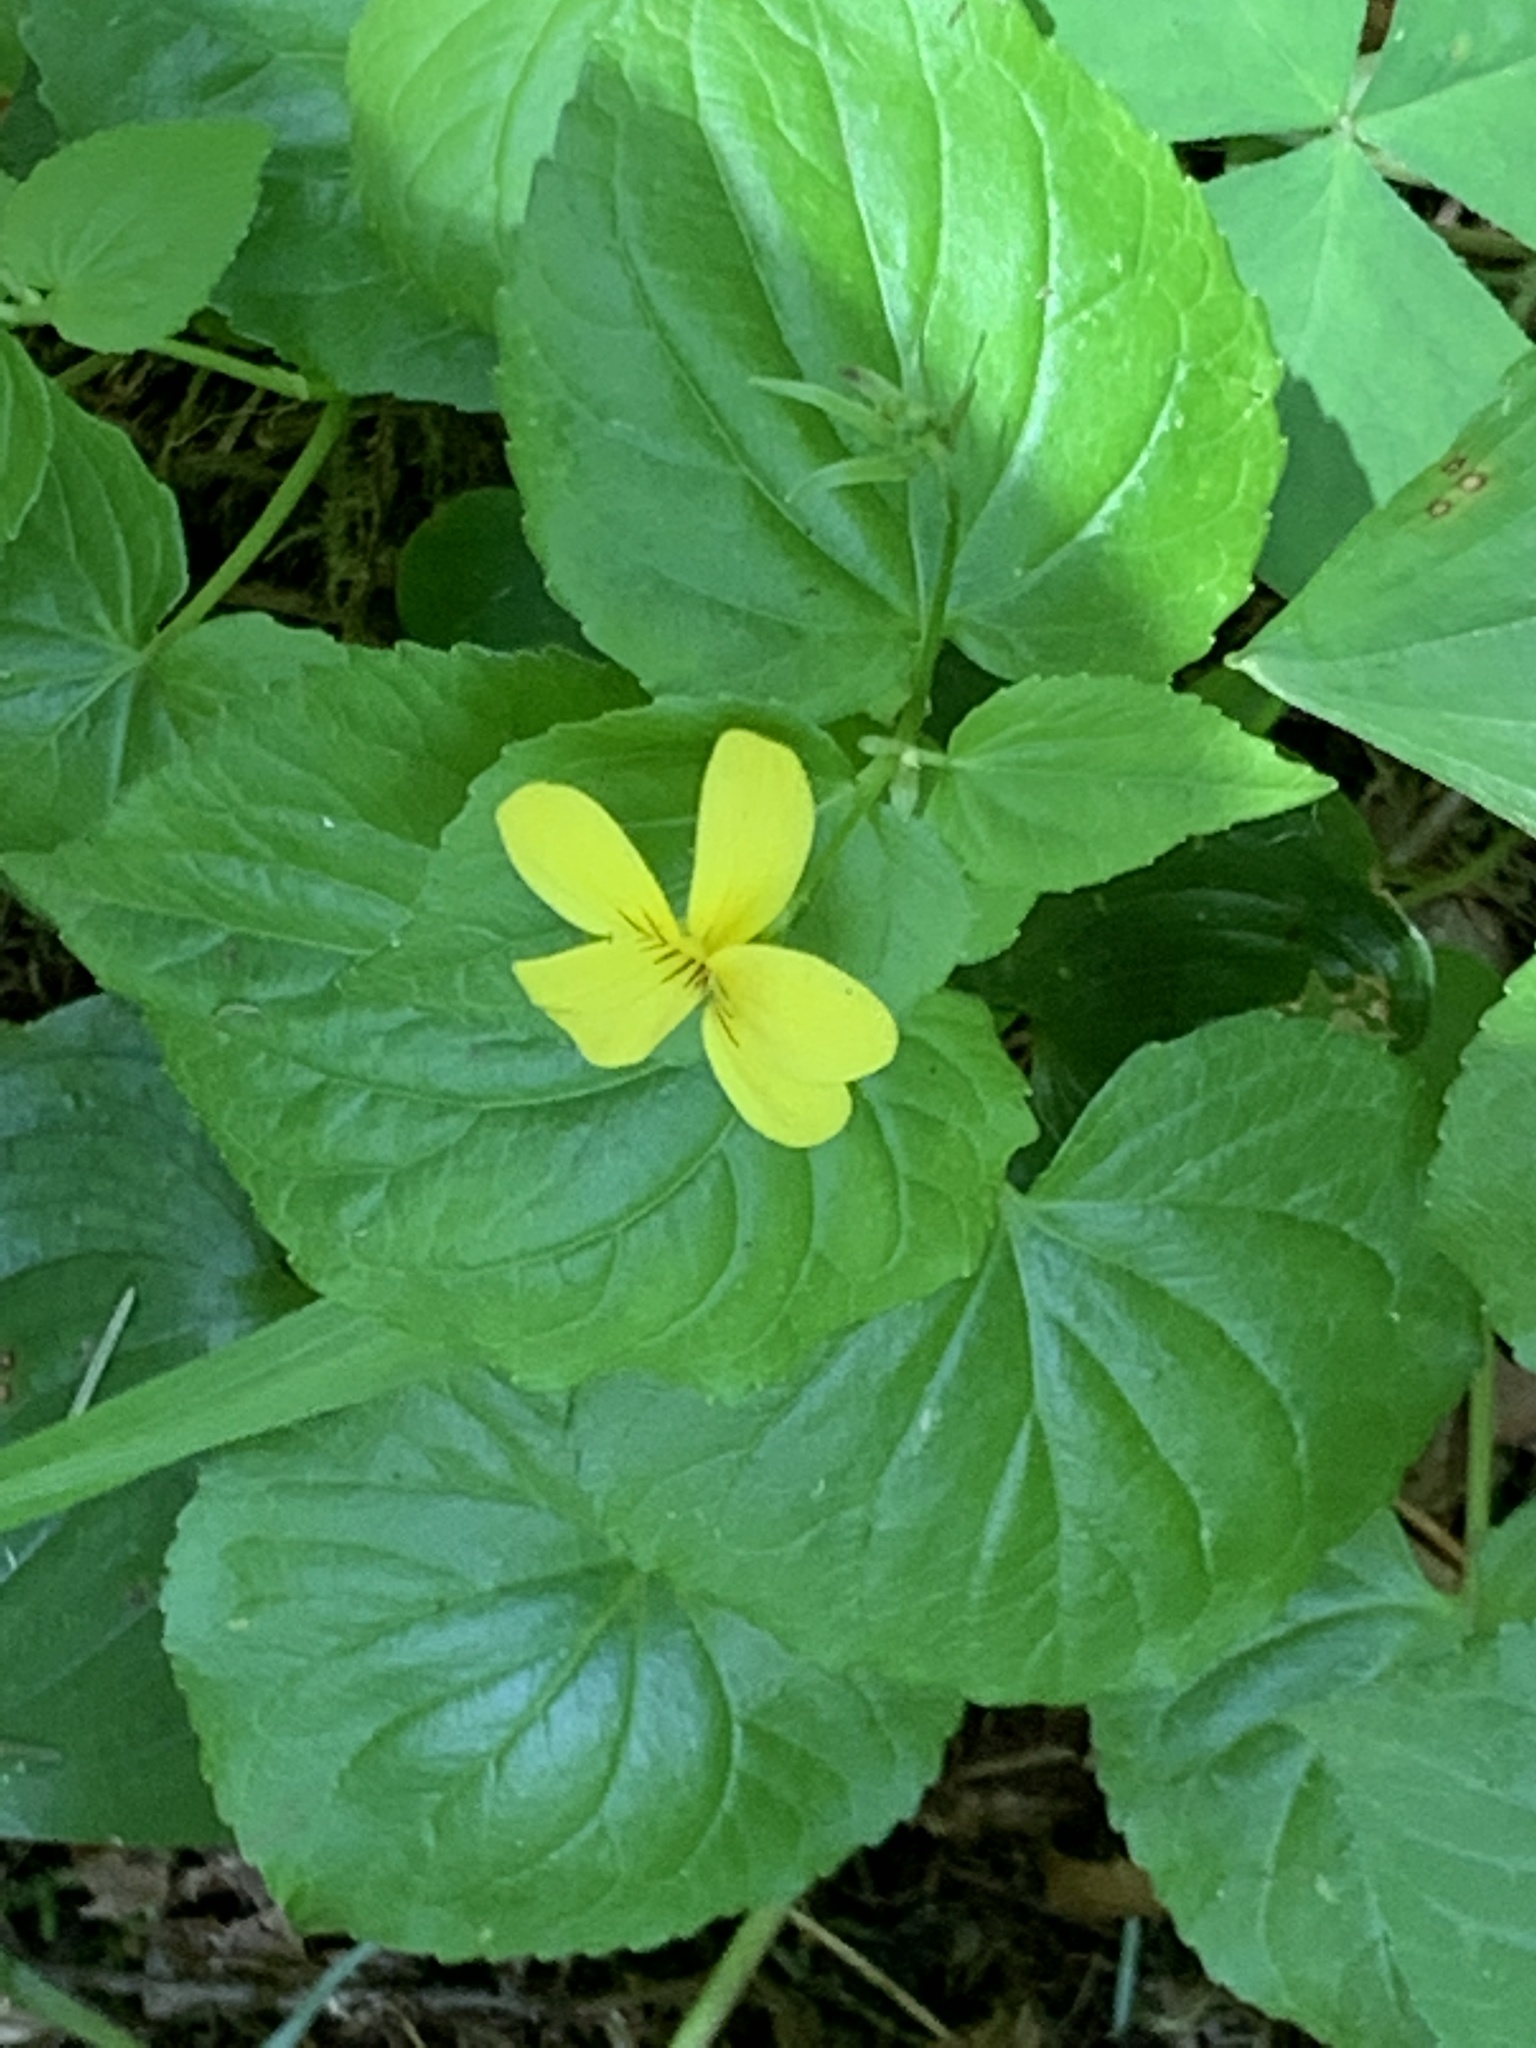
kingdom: Plantae
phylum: Tracheophyta
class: Magnoliopsida
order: Malpighiales
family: Violaceae
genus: Viola
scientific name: Viola glabella
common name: Stream violet
